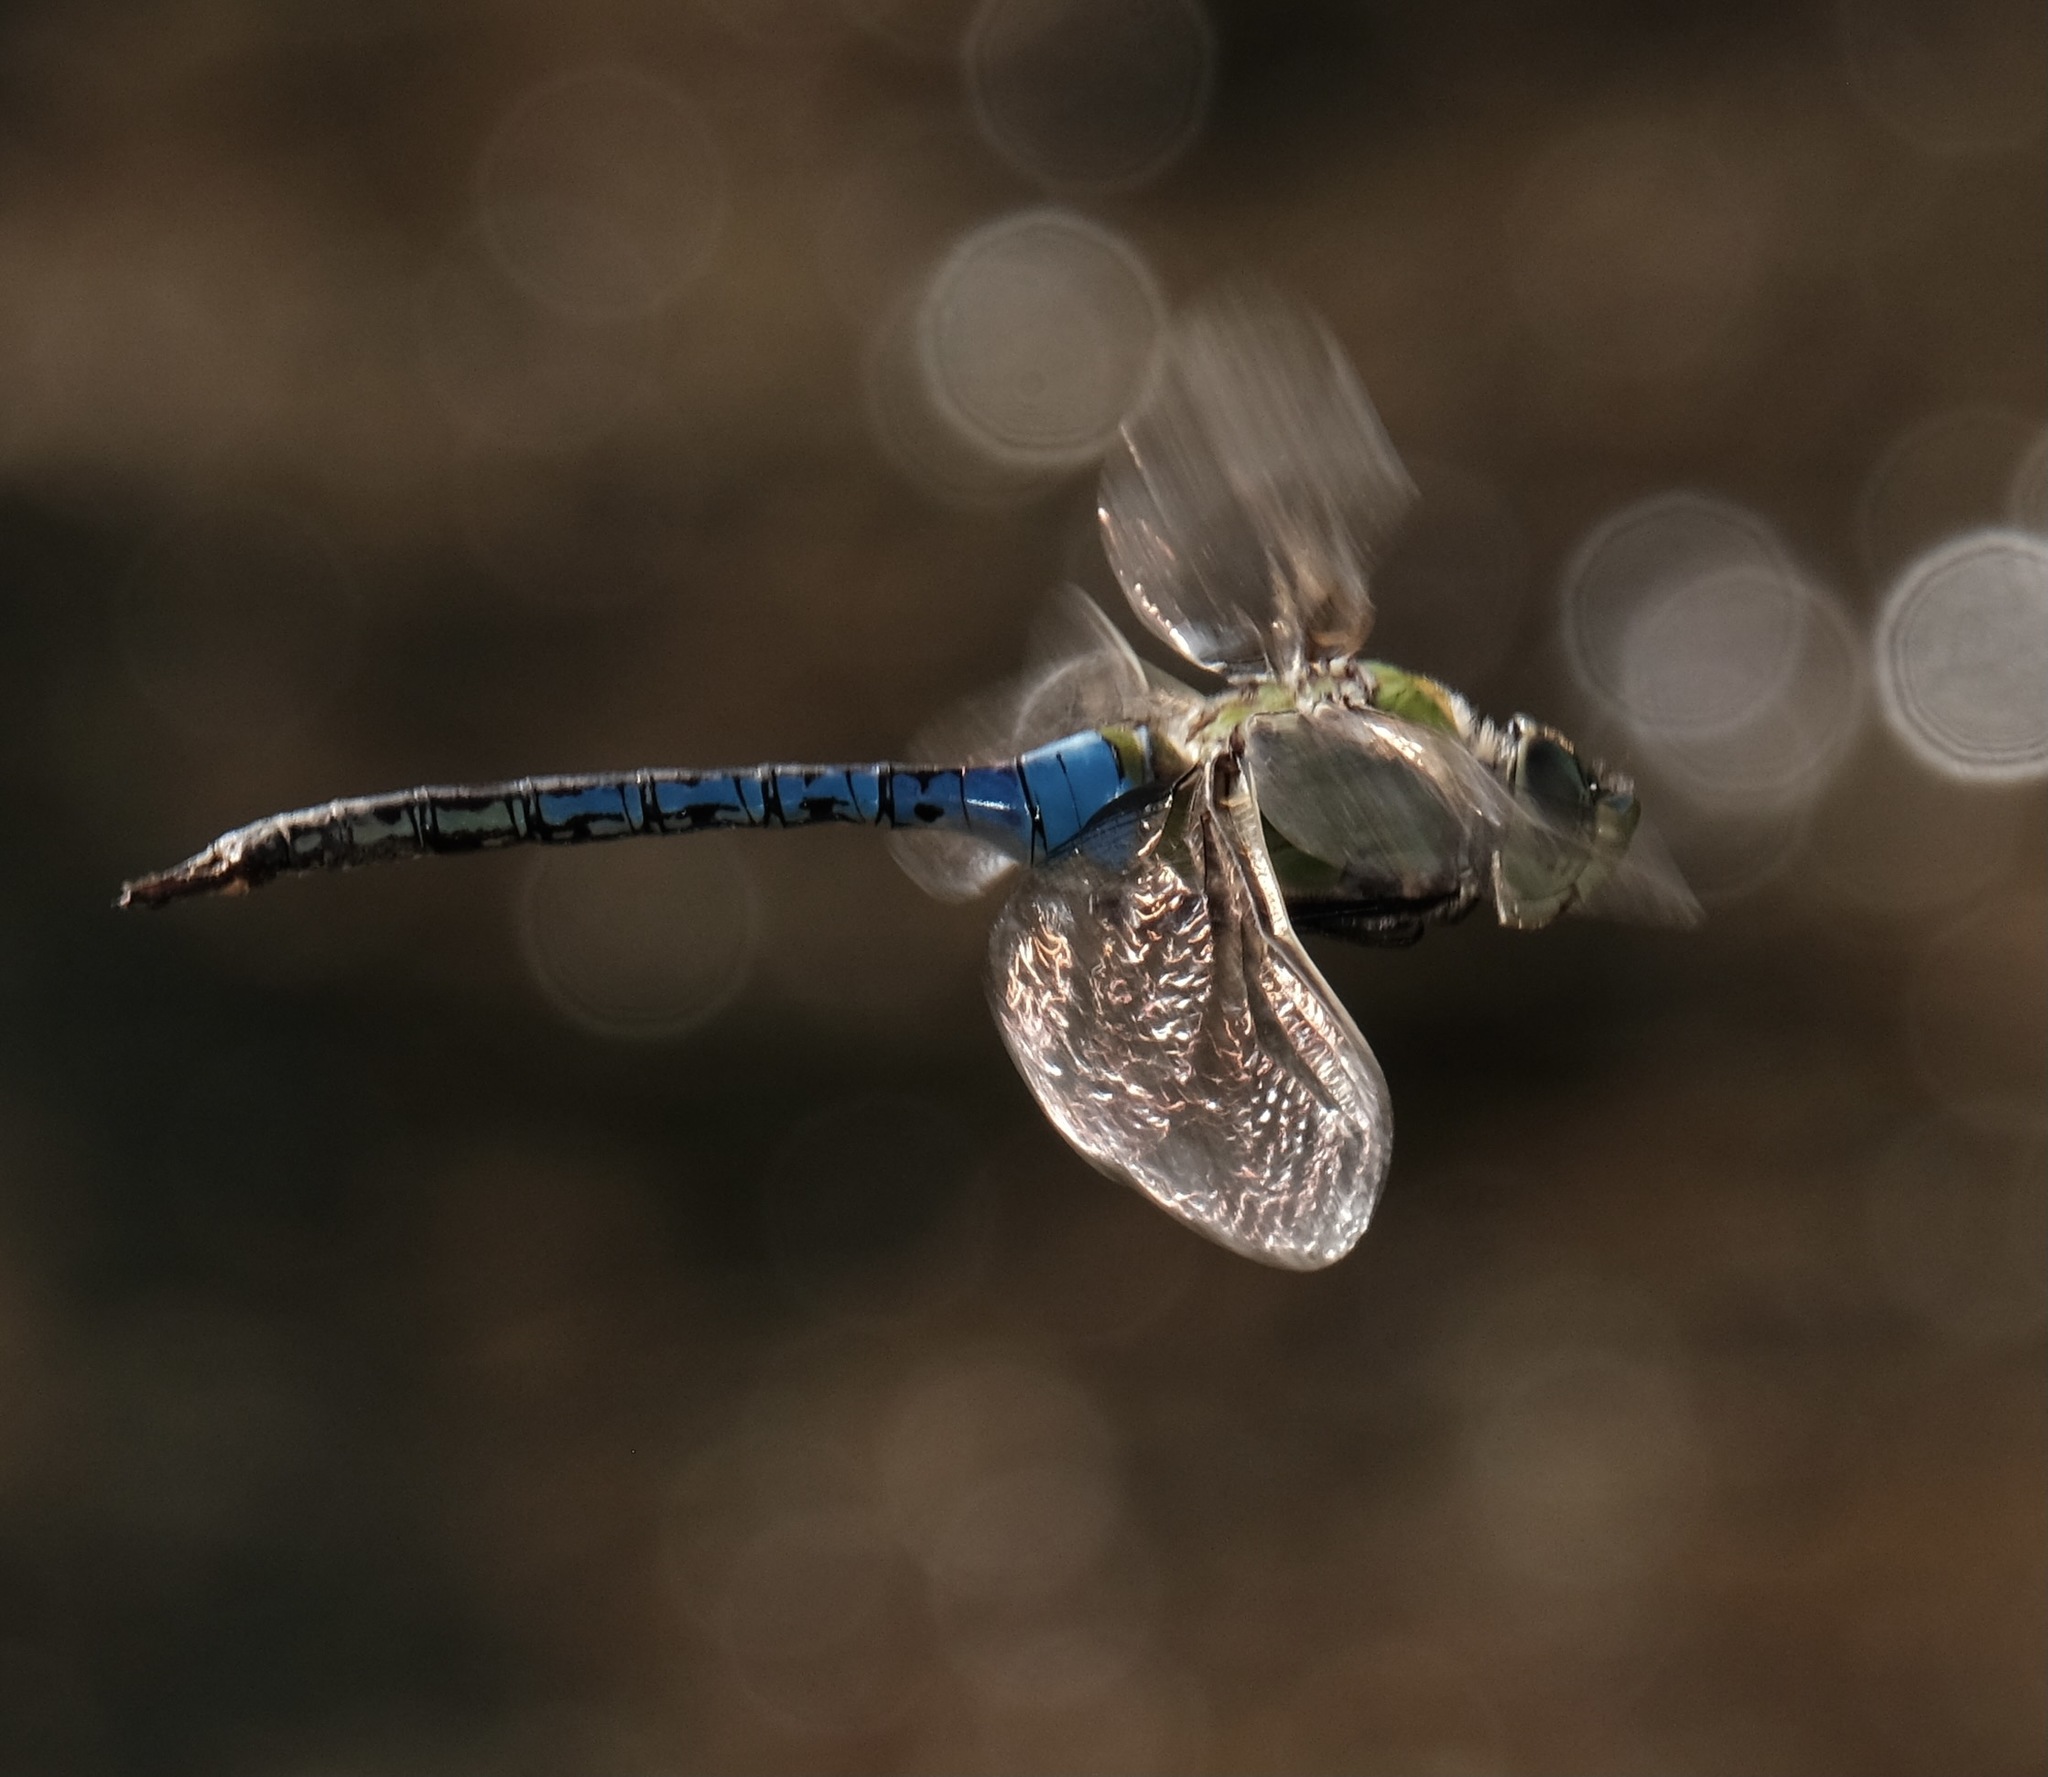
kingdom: Animalia
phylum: Arthropoda
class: Insecta
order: Odonata
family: Aeshnidae
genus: Anax
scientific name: Anax junius
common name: Common green darner
